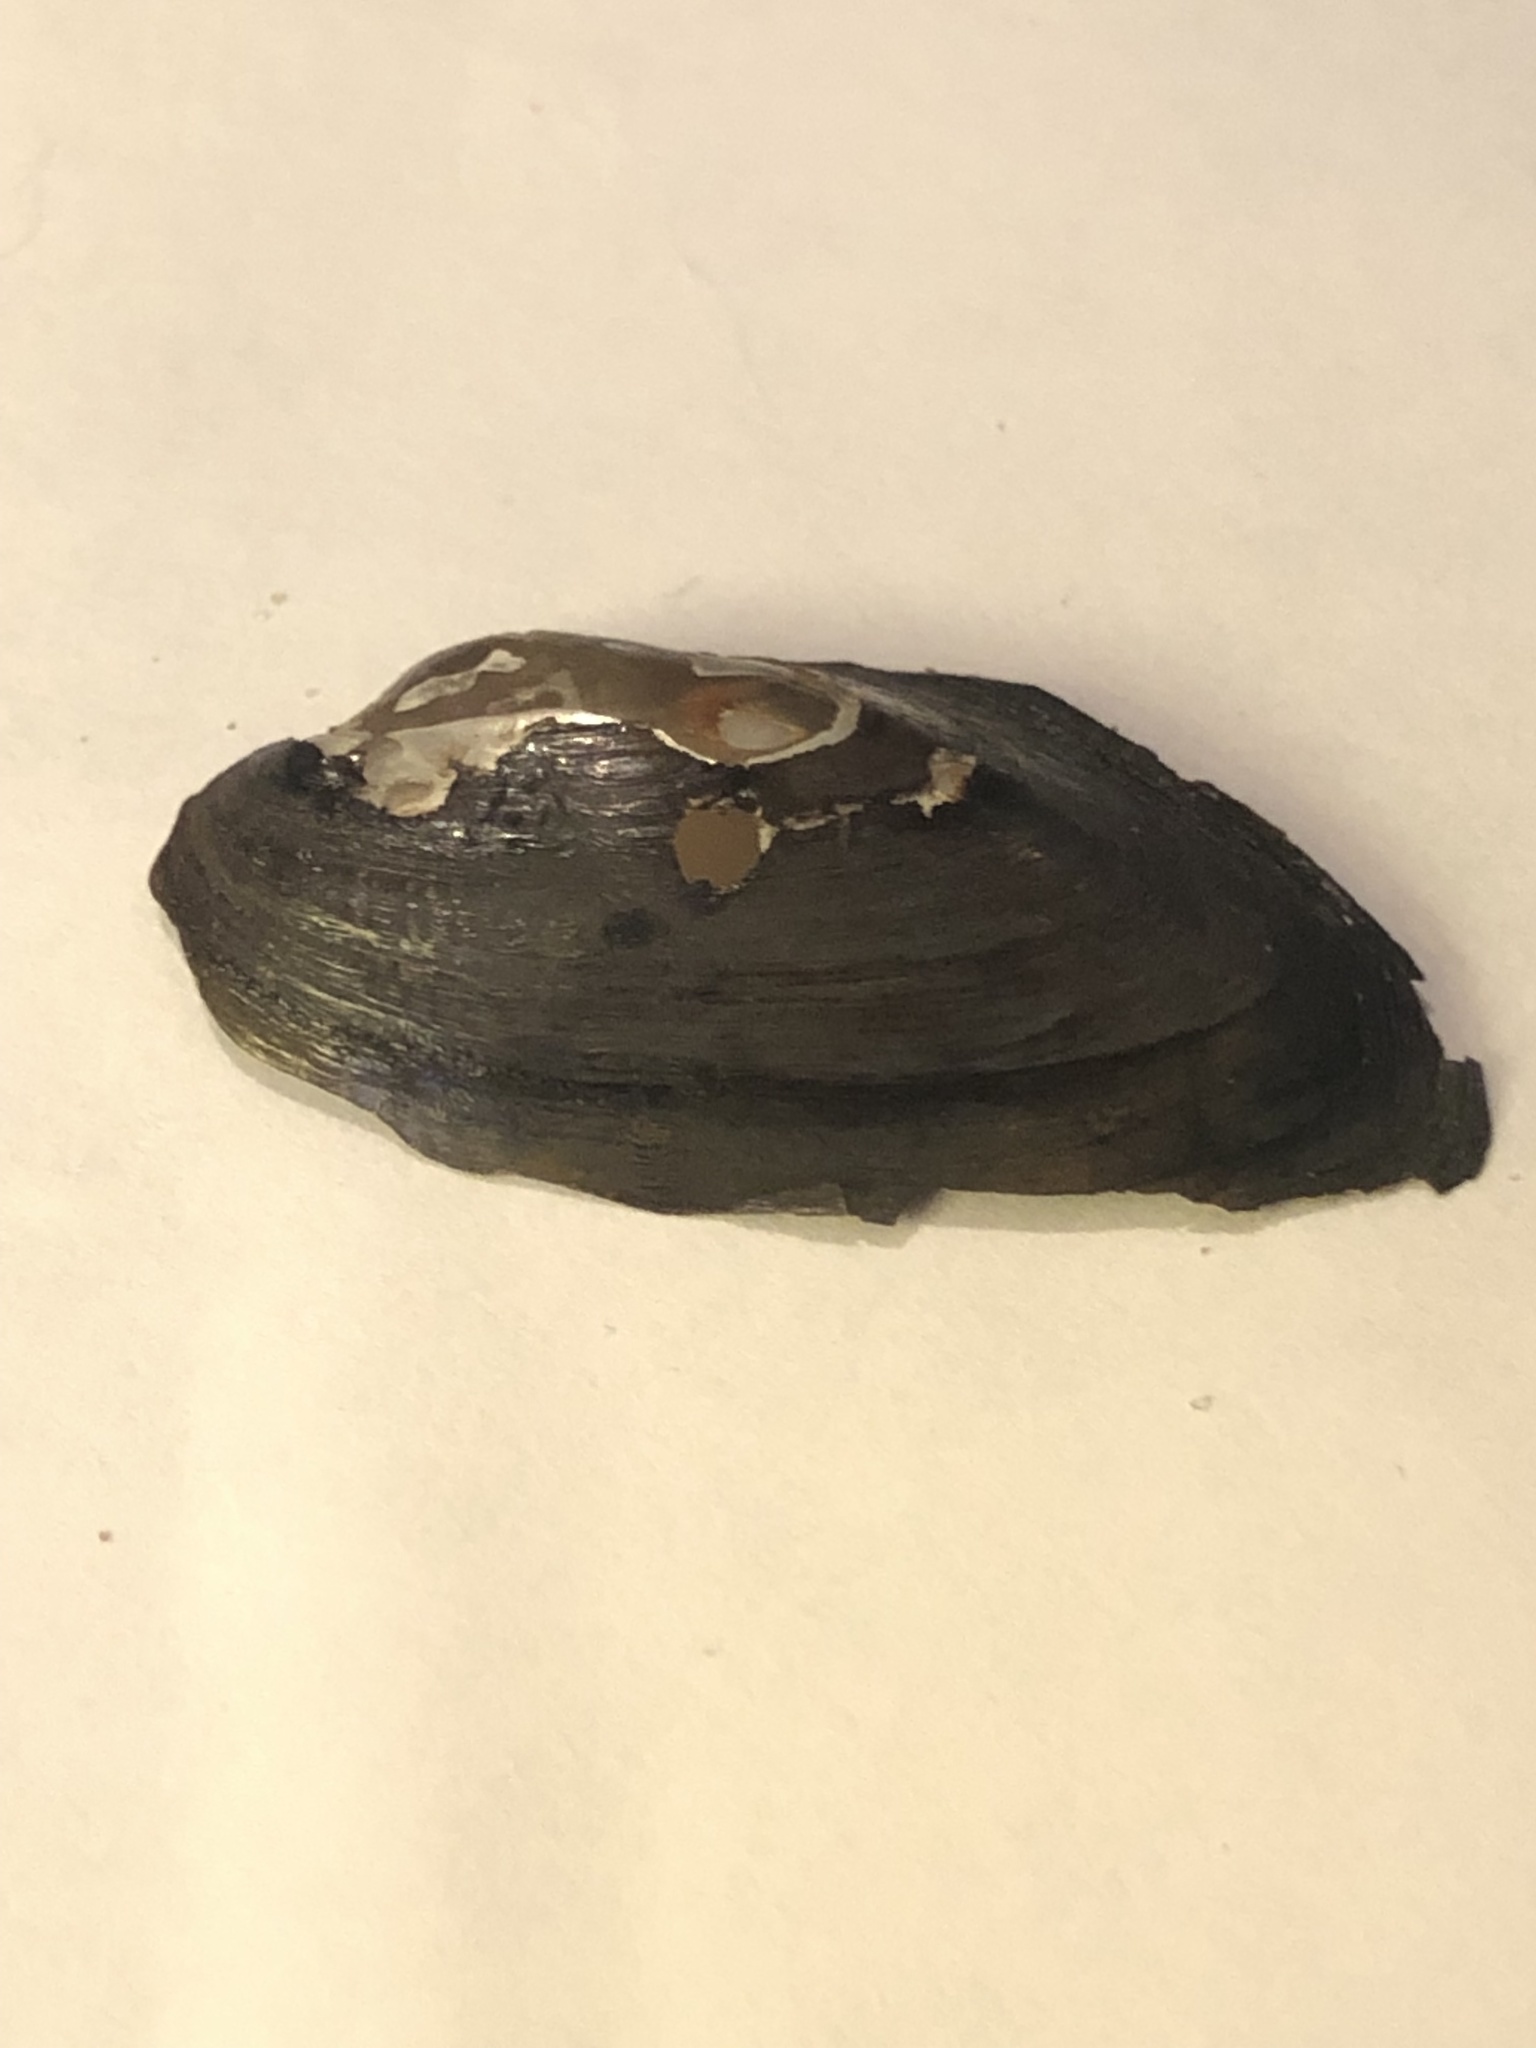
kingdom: Animalia
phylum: Mollusca
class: Bivalvia
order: Unionida
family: Unionidae
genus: Sagittunio
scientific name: Sagittunio nasutus
